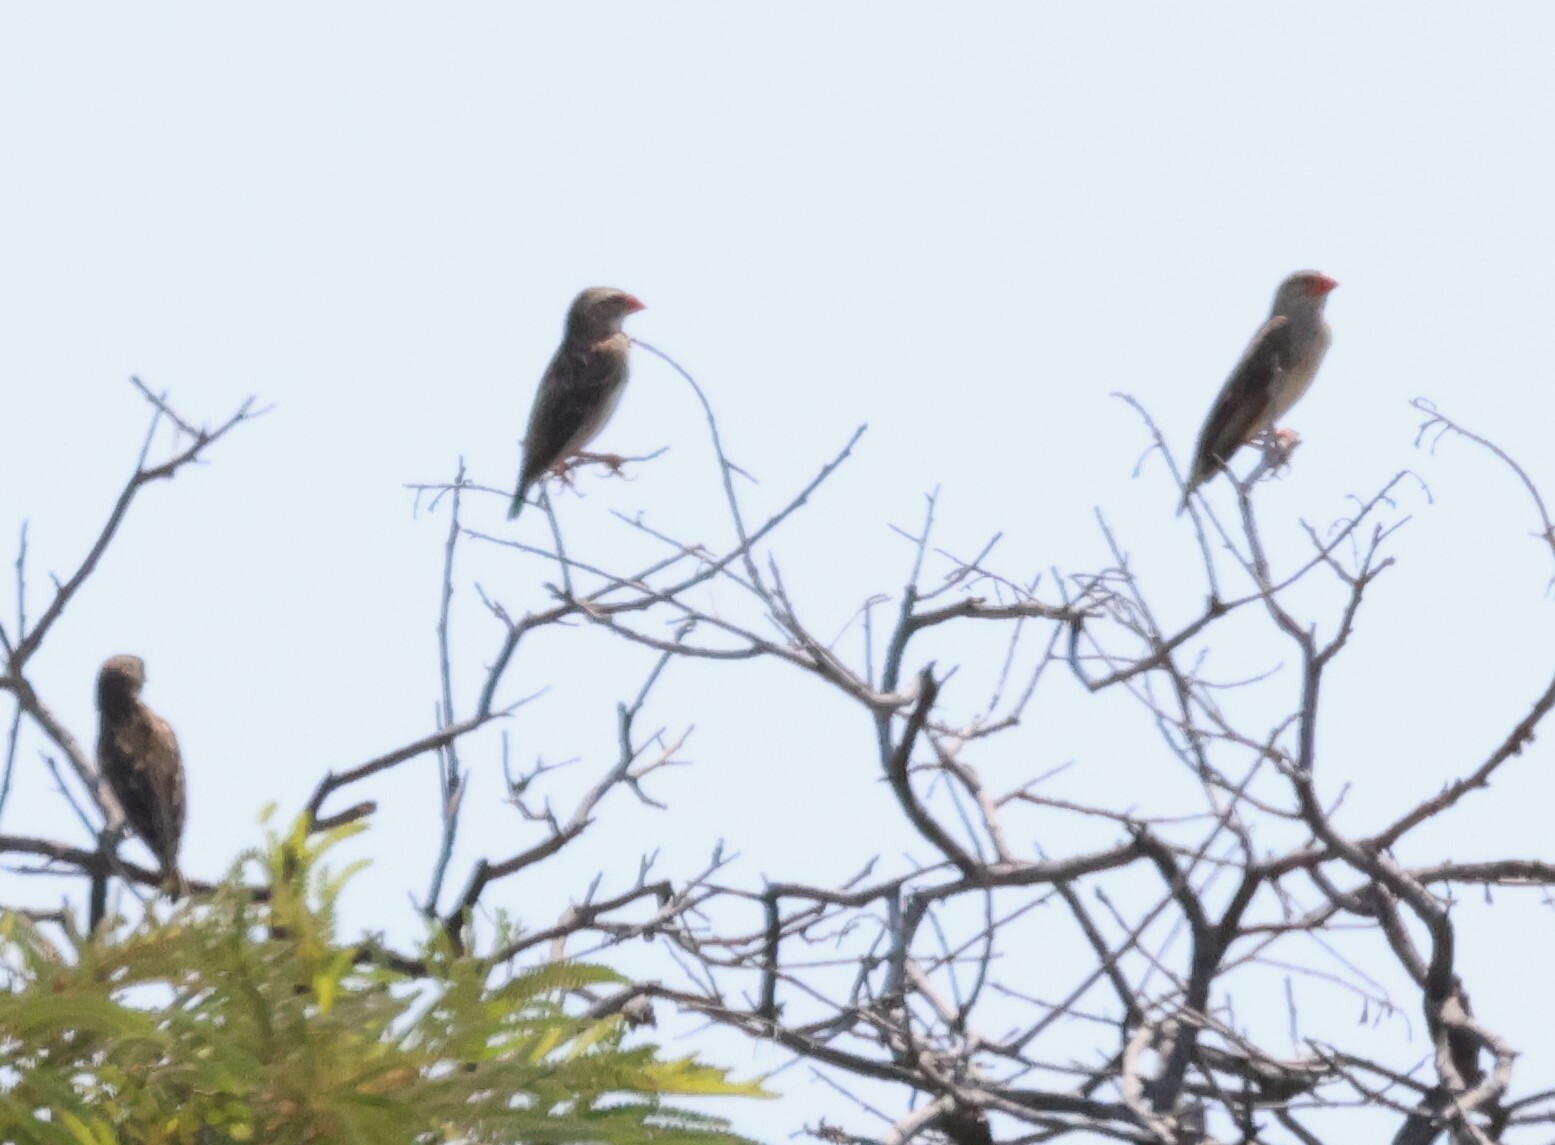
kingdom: Animalia
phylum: Chordata
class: Aves
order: Passeriformes
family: Ploceidae
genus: Quelea
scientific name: Quelea quelea
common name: Red-billed quelea
